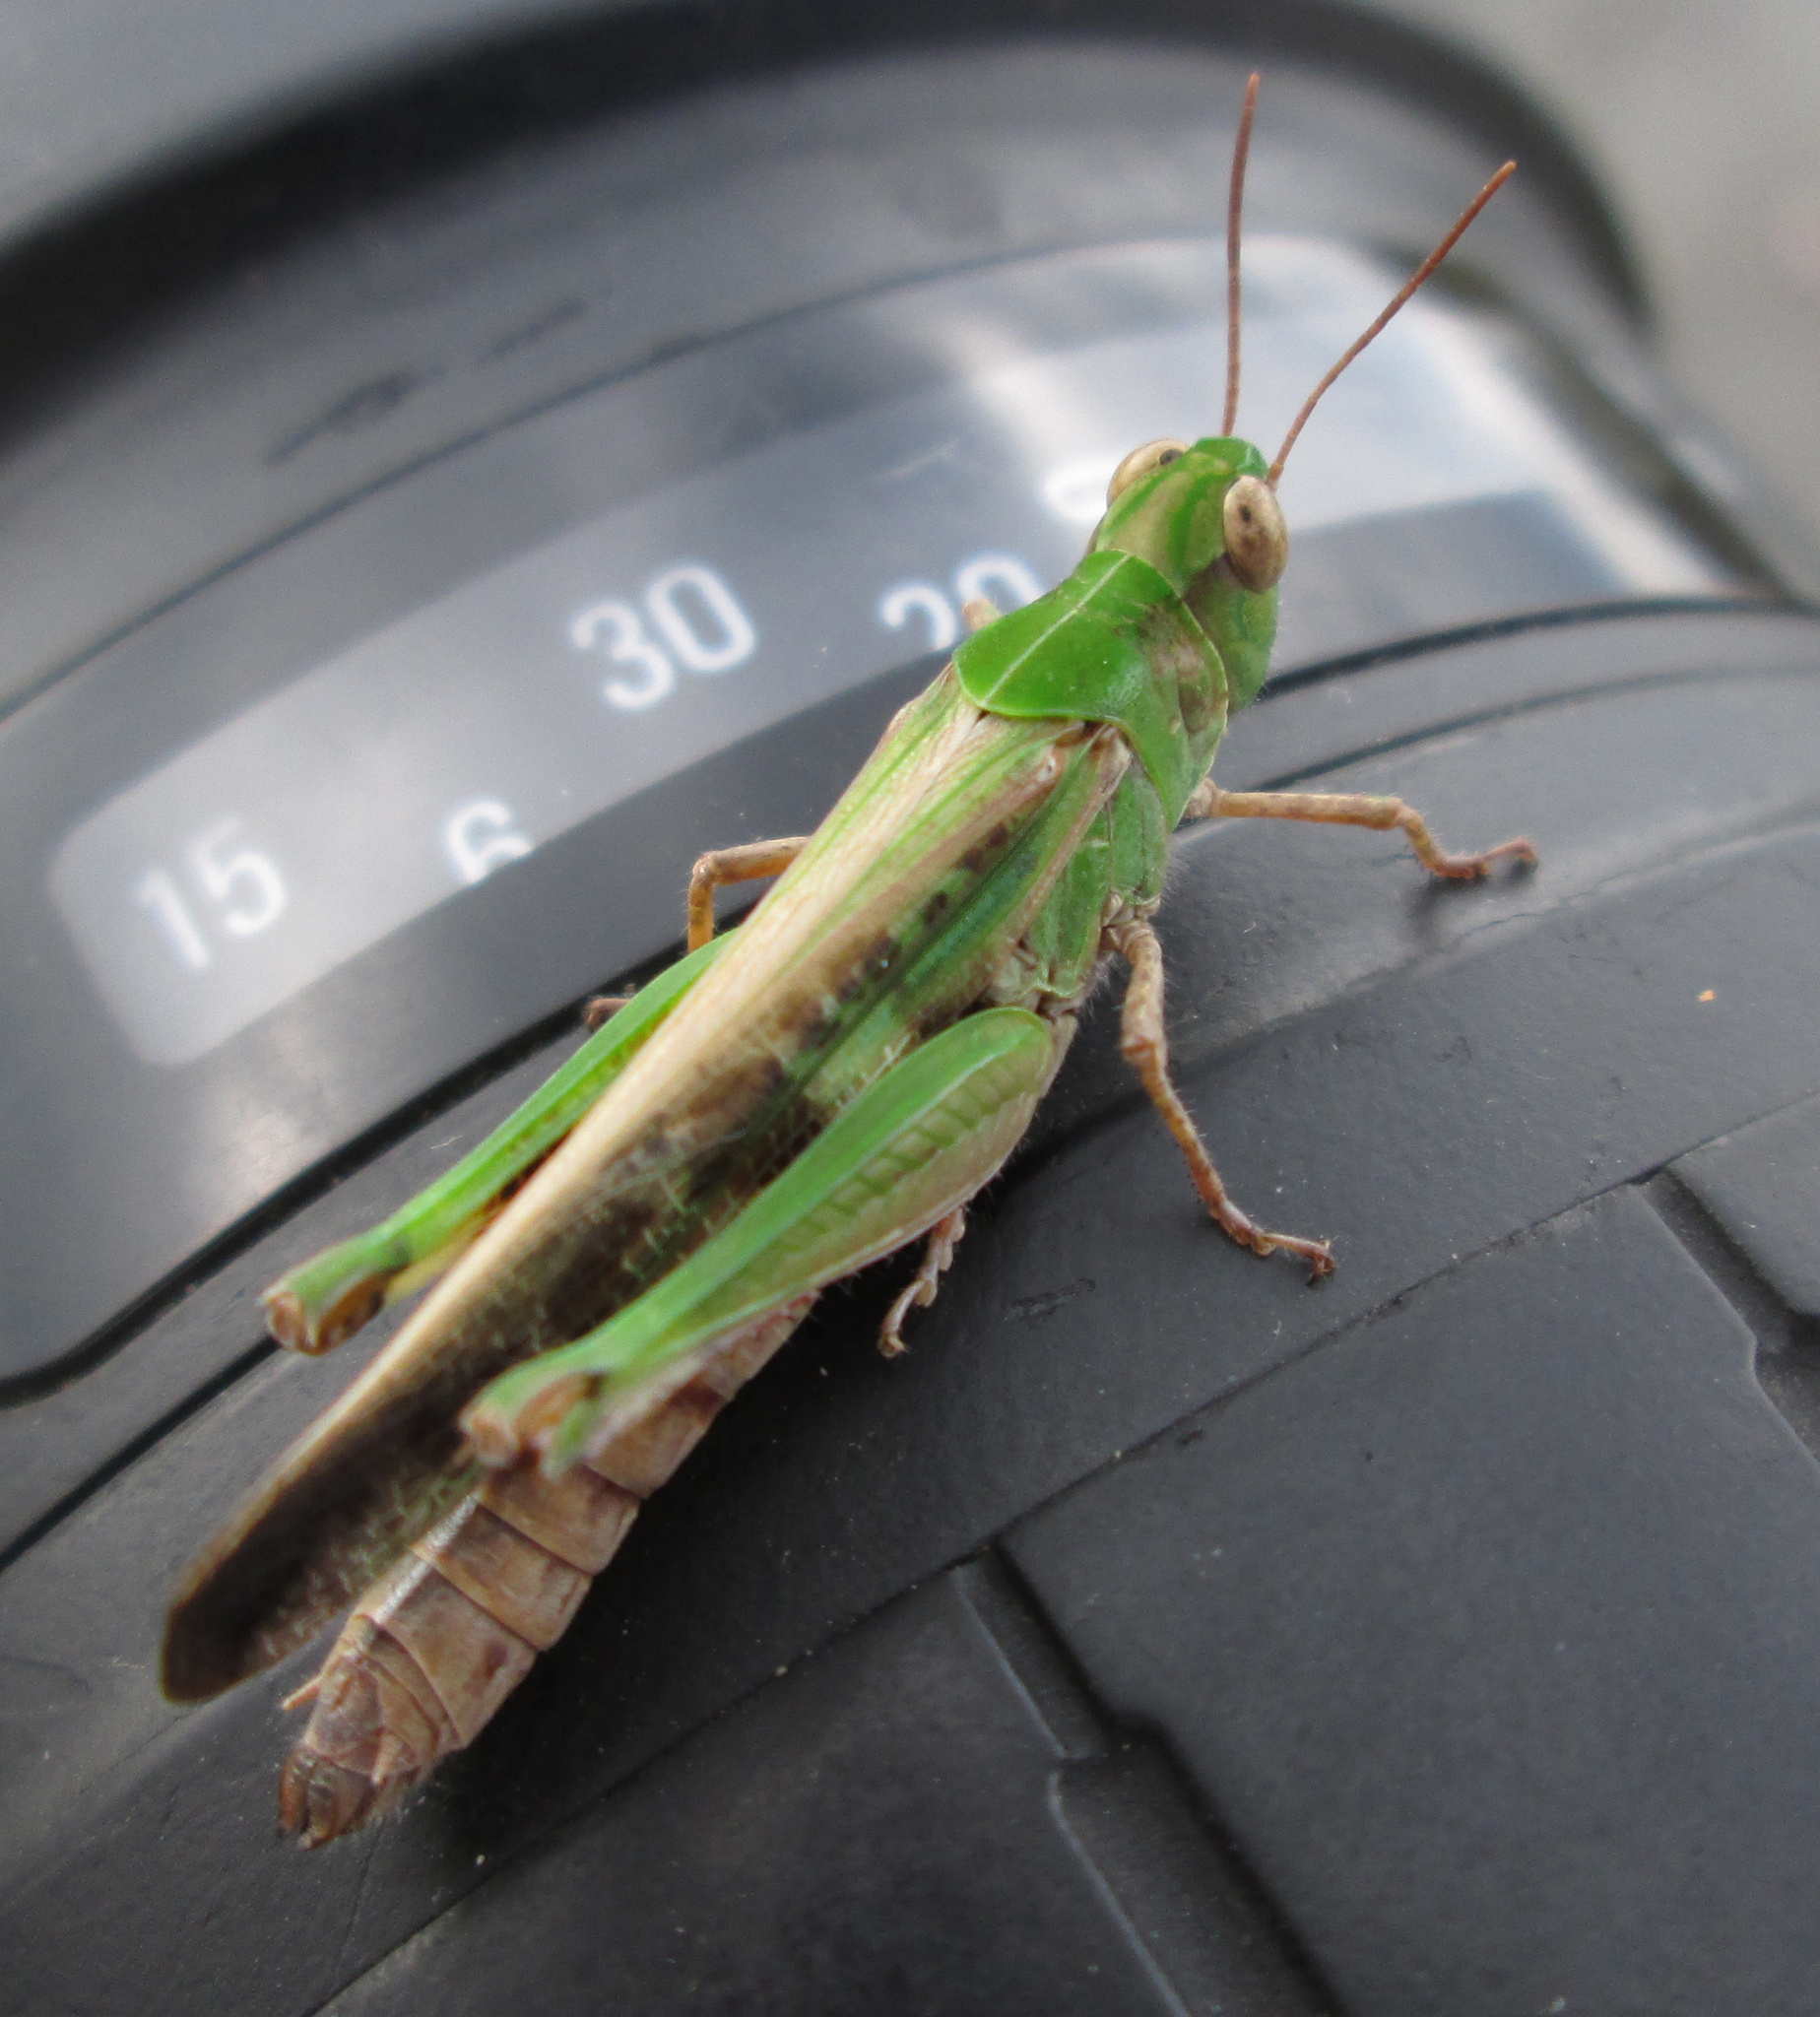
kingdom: Animalia
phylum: Arthropoda
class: Insecta
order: Orthoptera
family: Acrididae
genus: Aiolopus
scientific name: Aiolopus thalassinus
